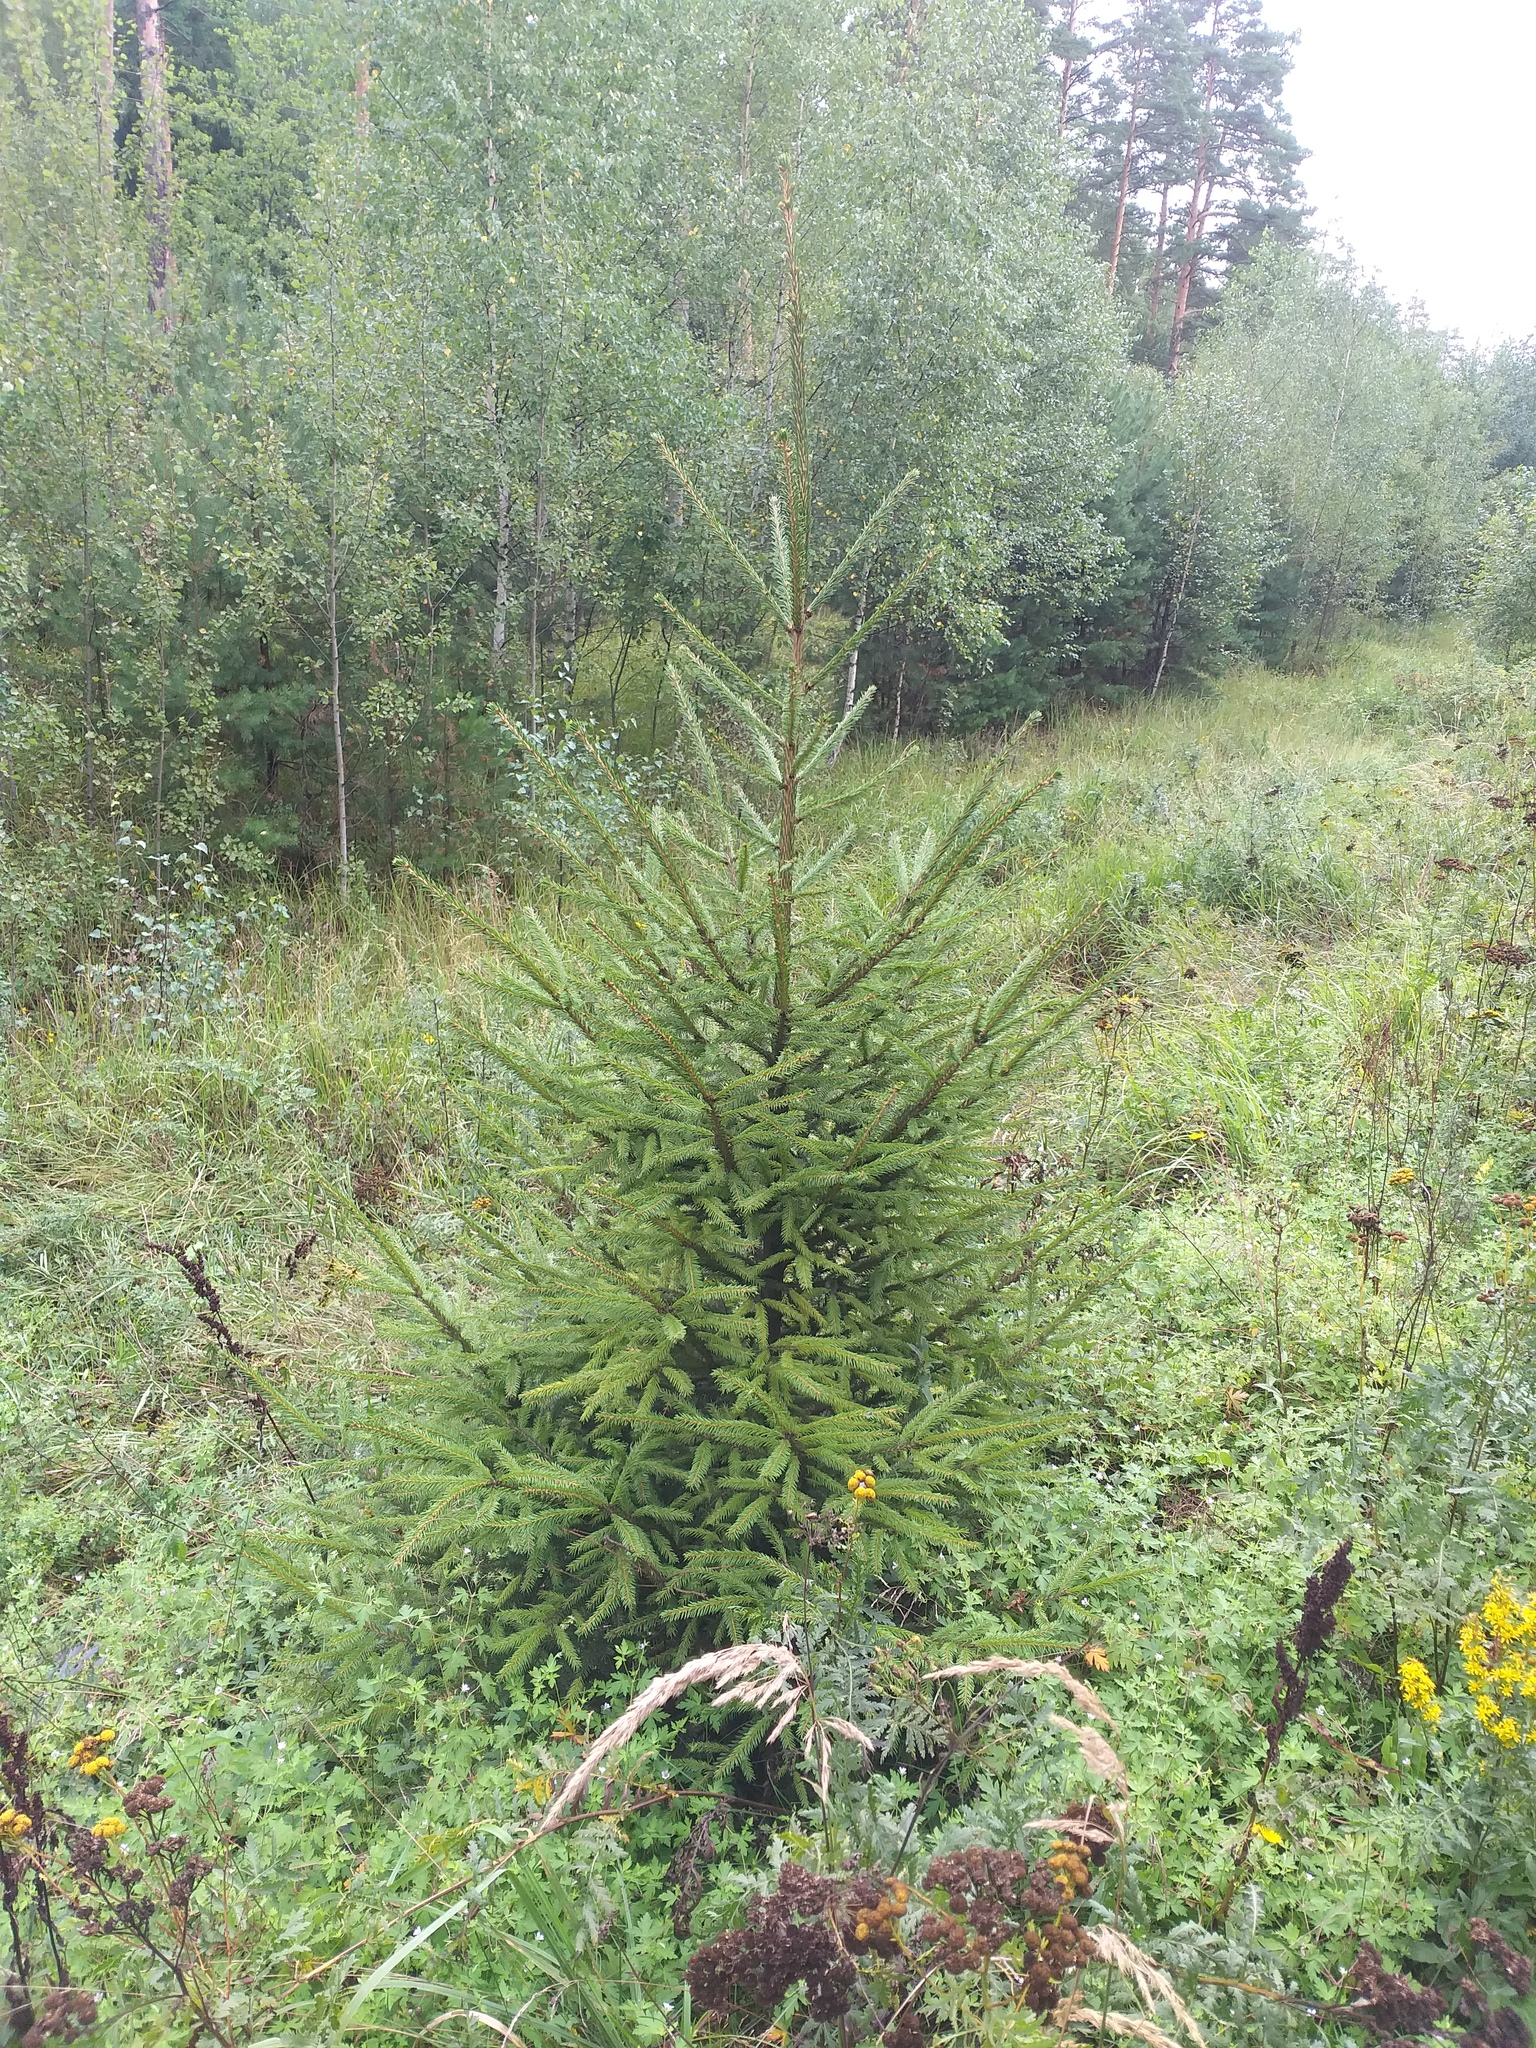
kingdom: Plantae
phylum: Tracheophyta
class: Pinopsida
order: Pinales
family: Pinaceae
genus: Picea
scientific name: Picea abies
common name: Norway spruce
